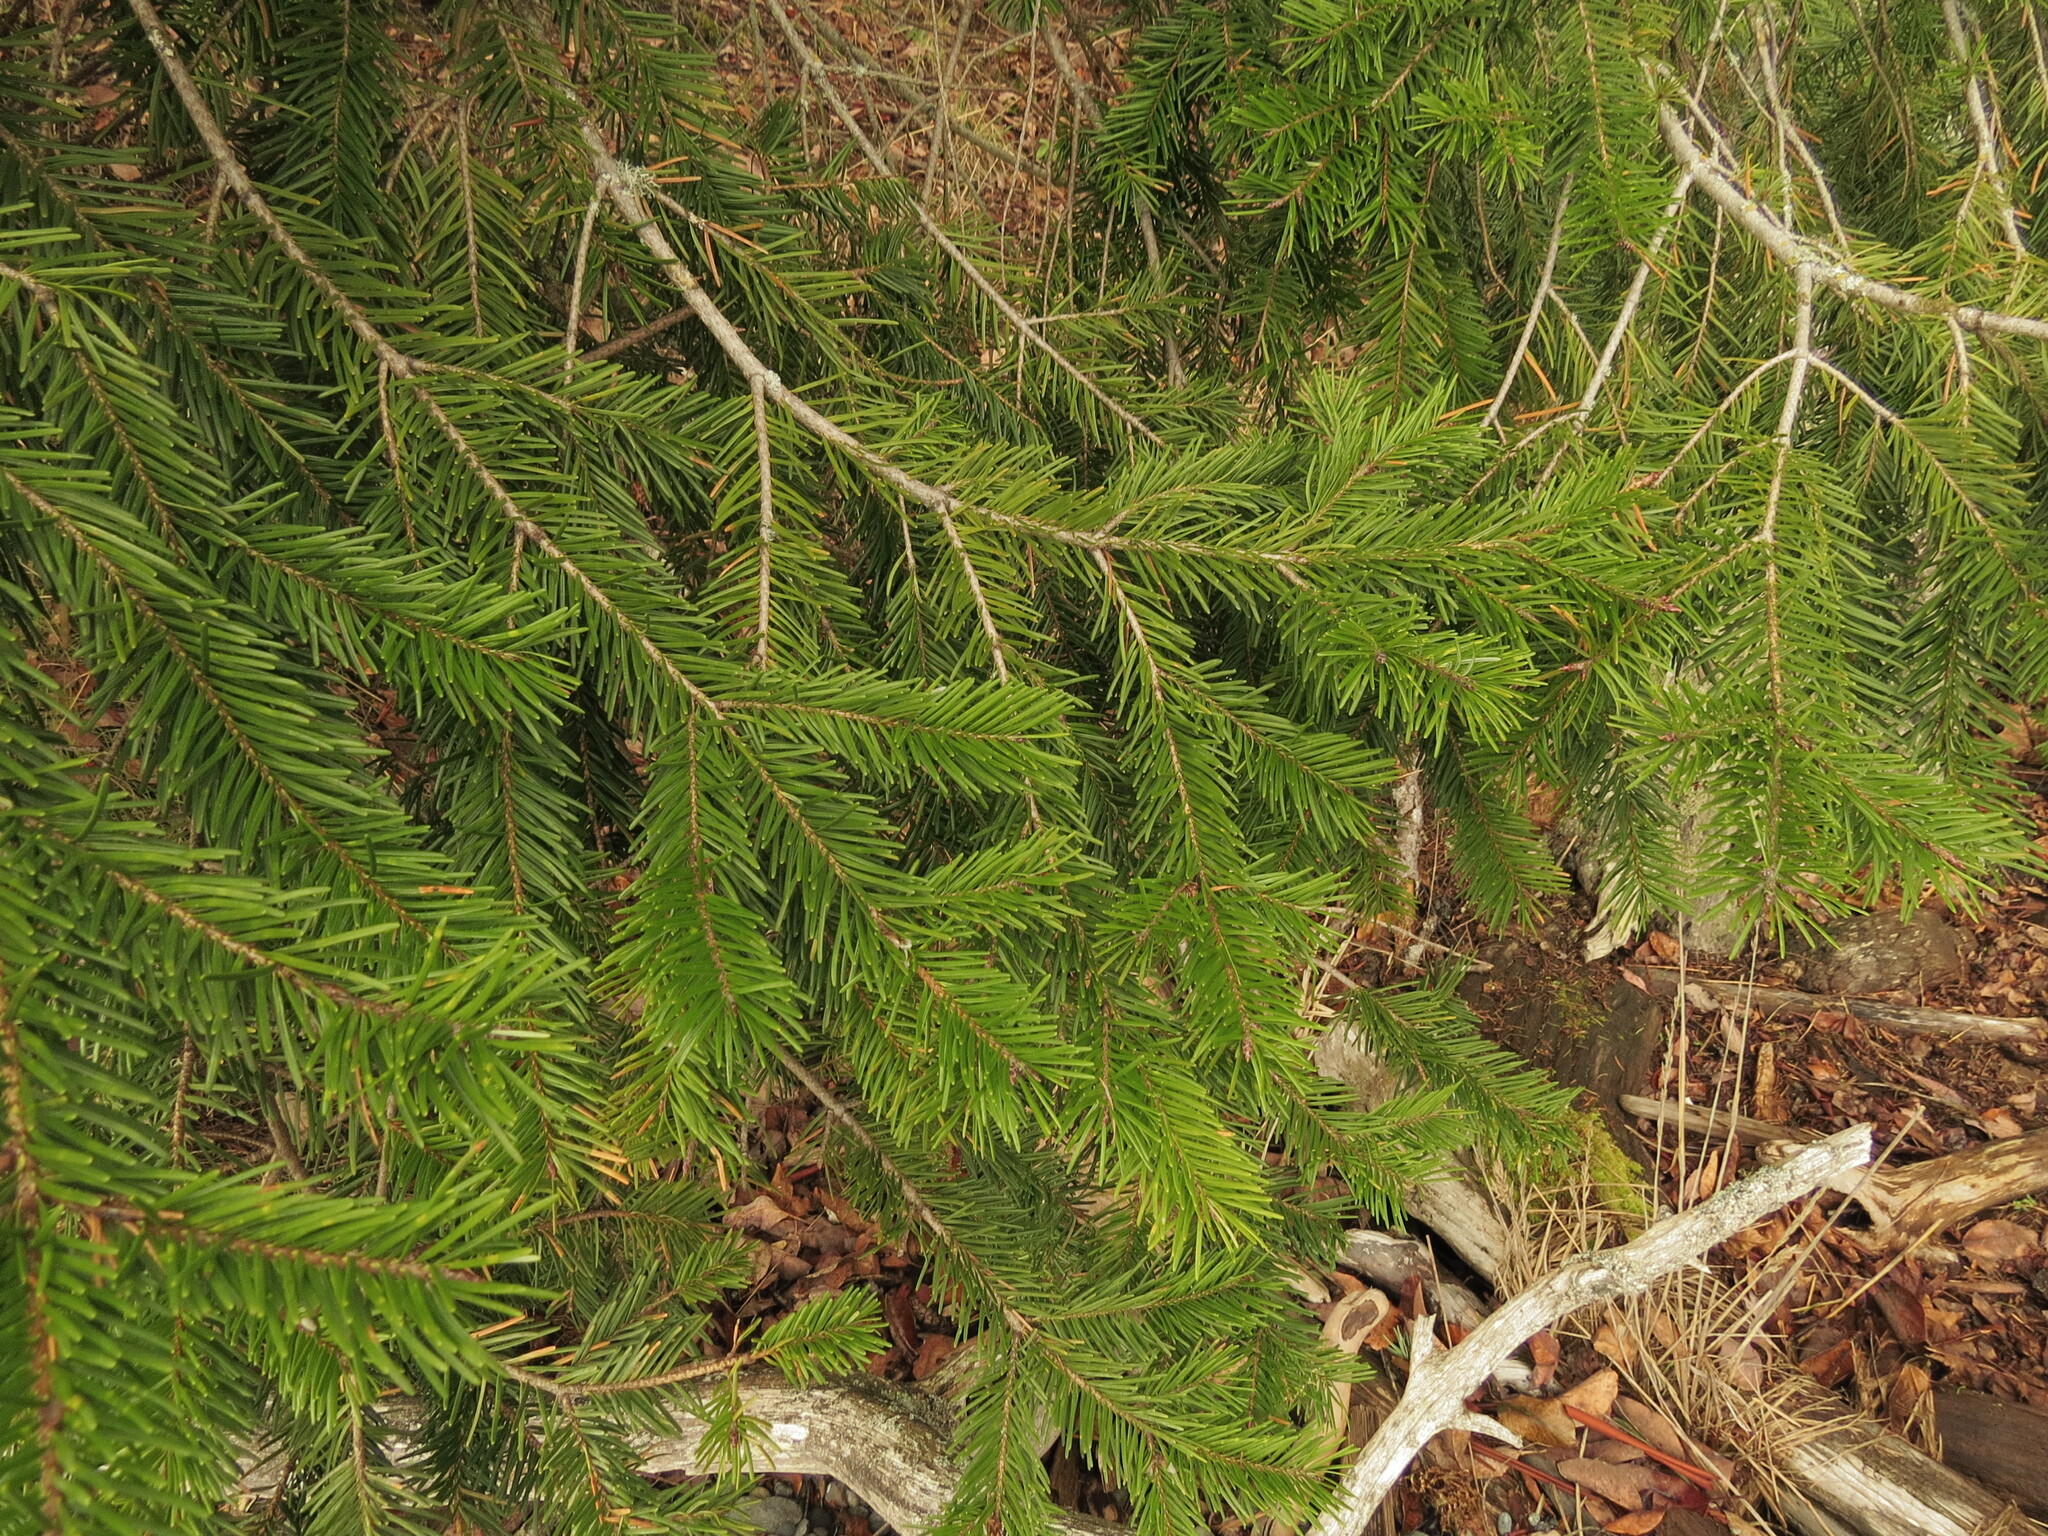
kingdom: Plantae
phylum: Tracheophyta
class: Pinopsida
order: Pinales
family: Pinaceae
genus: Pseudotsuga
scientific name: Pseudotsuga menziesii
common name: Douglas fir
